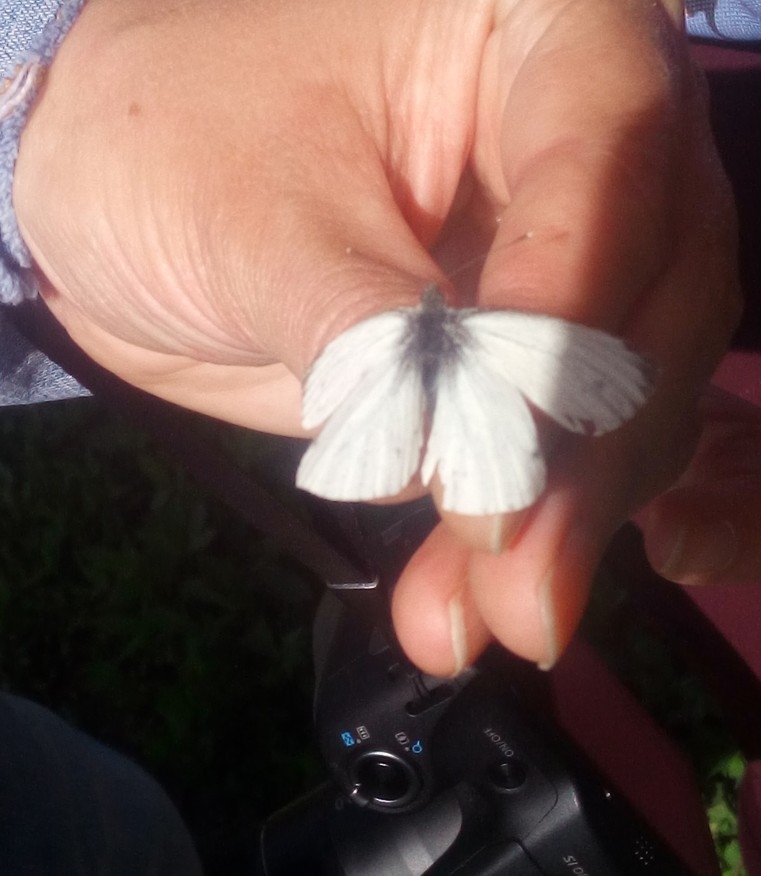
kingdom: Animalia
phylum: Arthropoda
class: Insecta
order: Lepidoptera
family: Pieridae
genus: Pieris
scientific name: Pieris napi
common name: Green-veined white
